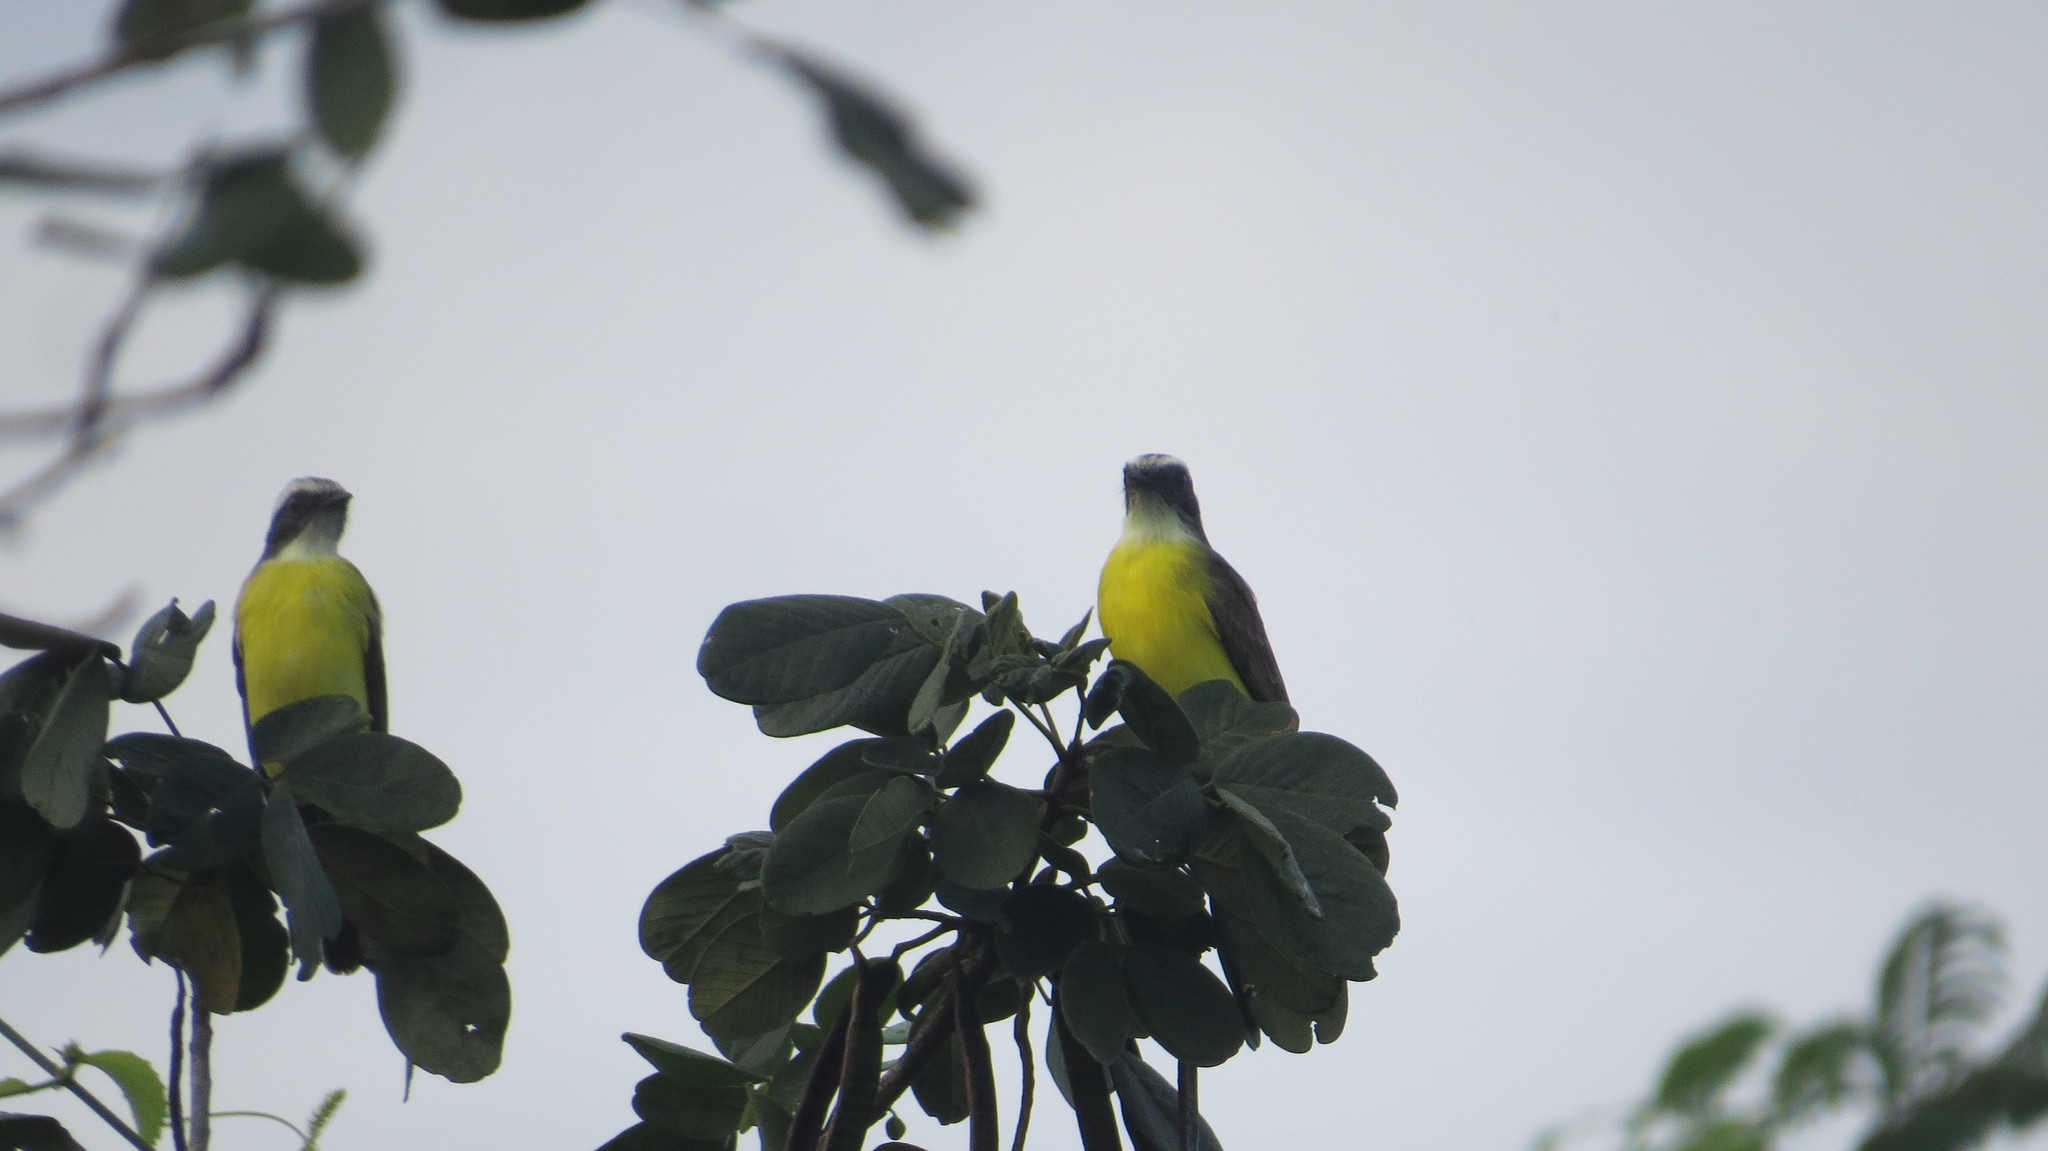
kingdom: Animalia
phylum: Chordata
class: Aves
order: Passeriformes
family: Tyrannidae
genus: Myiozetetes
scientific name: Myiozetetes similis
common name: Social flycatcher
